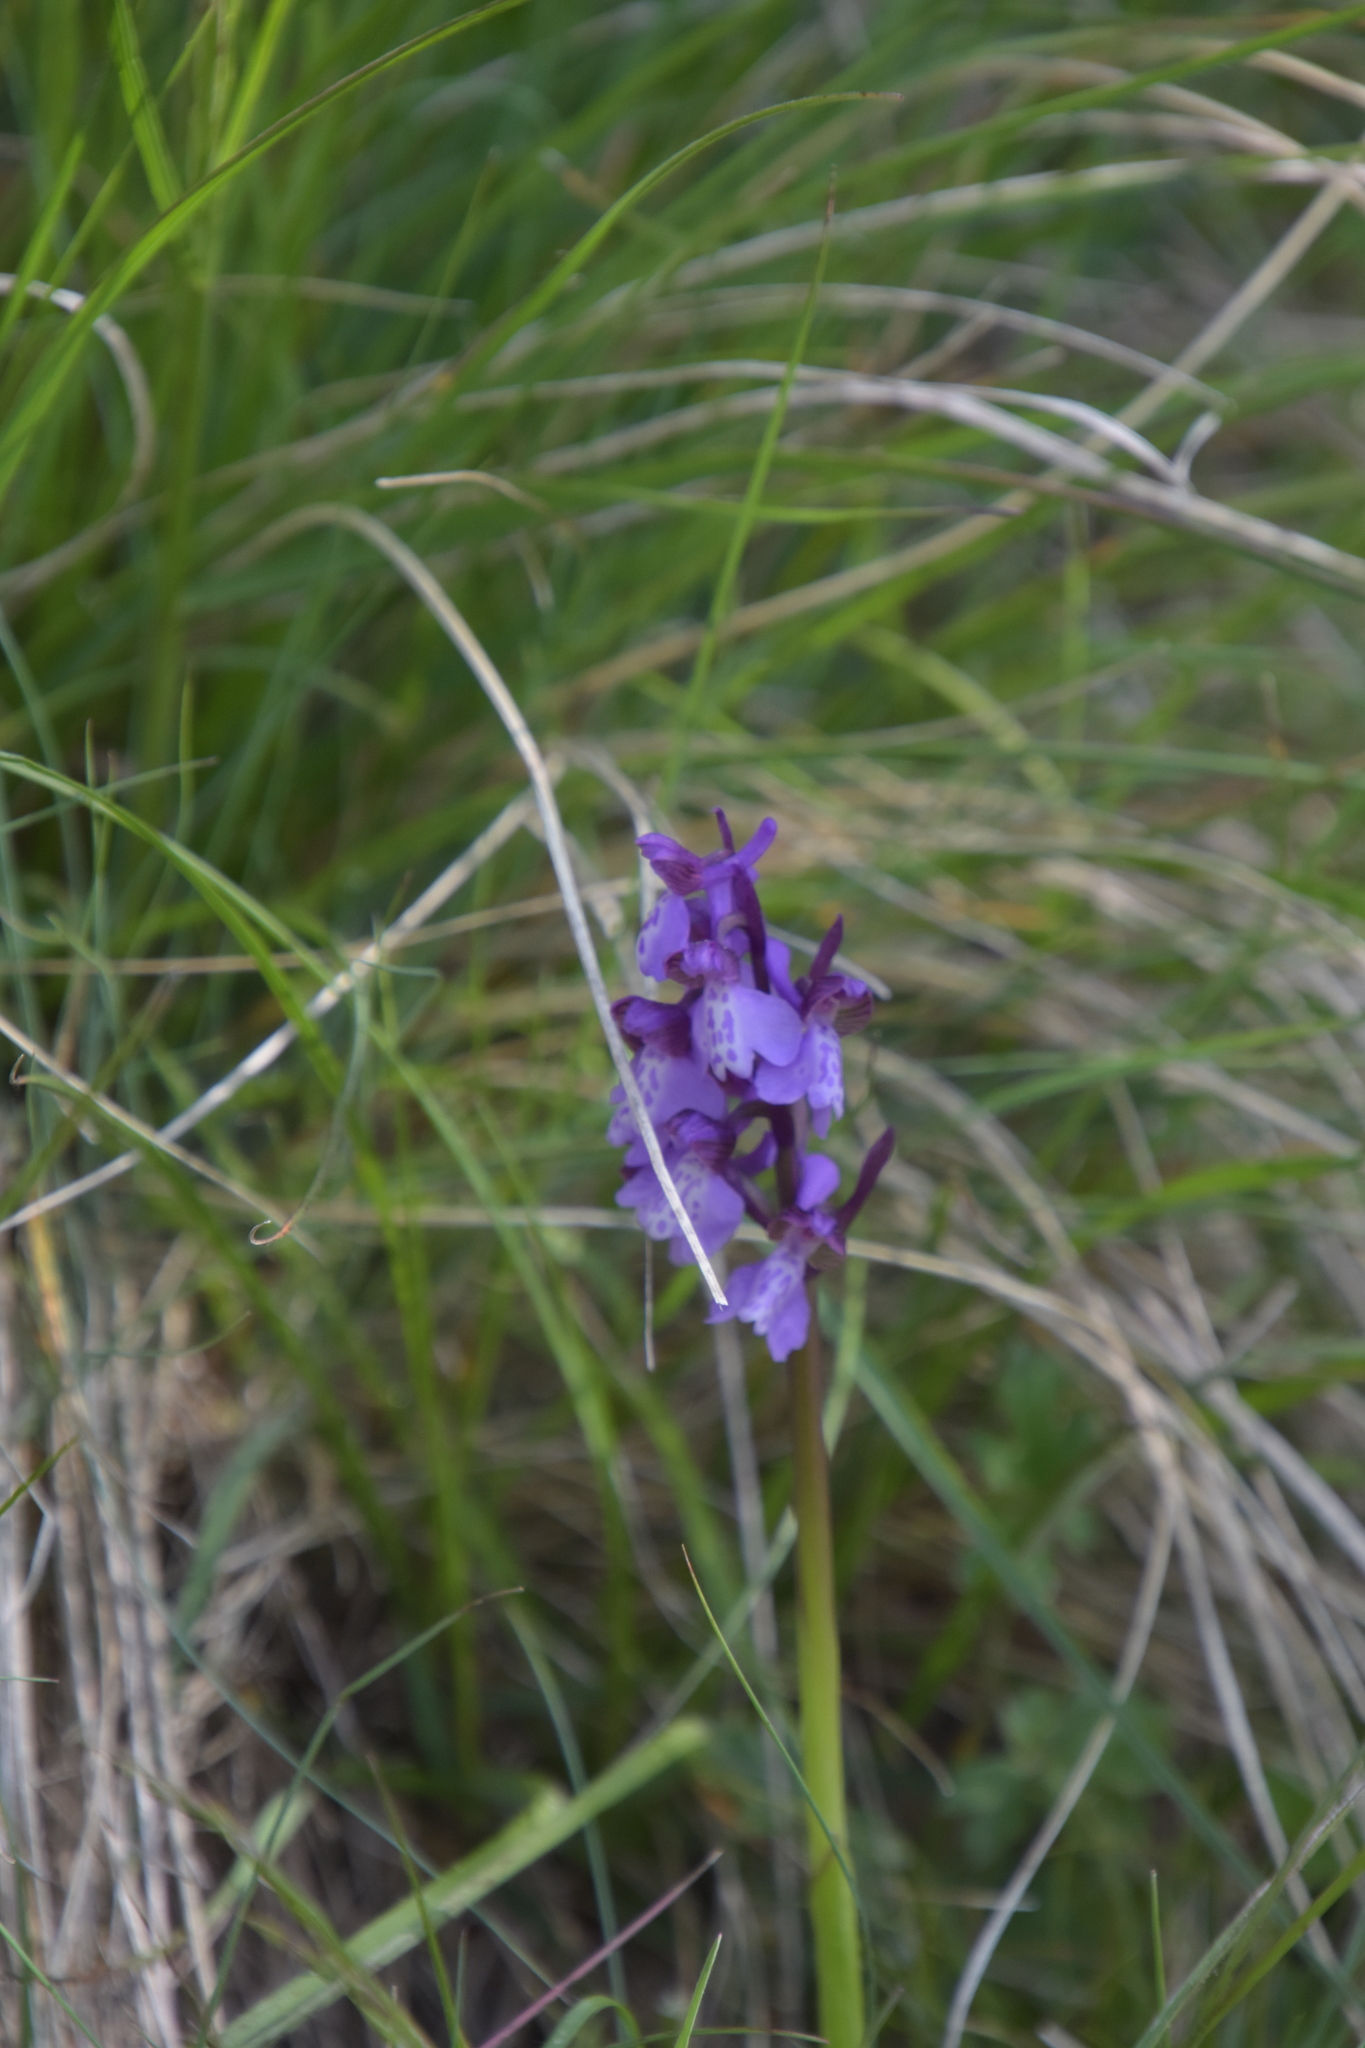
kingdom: Plantae
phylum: Tracheophyta
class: Liliopsida
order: Asparagales
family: Orchidaceae
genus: Anacamptis
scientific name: Anacamptis morio
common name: Green-winged orchid
